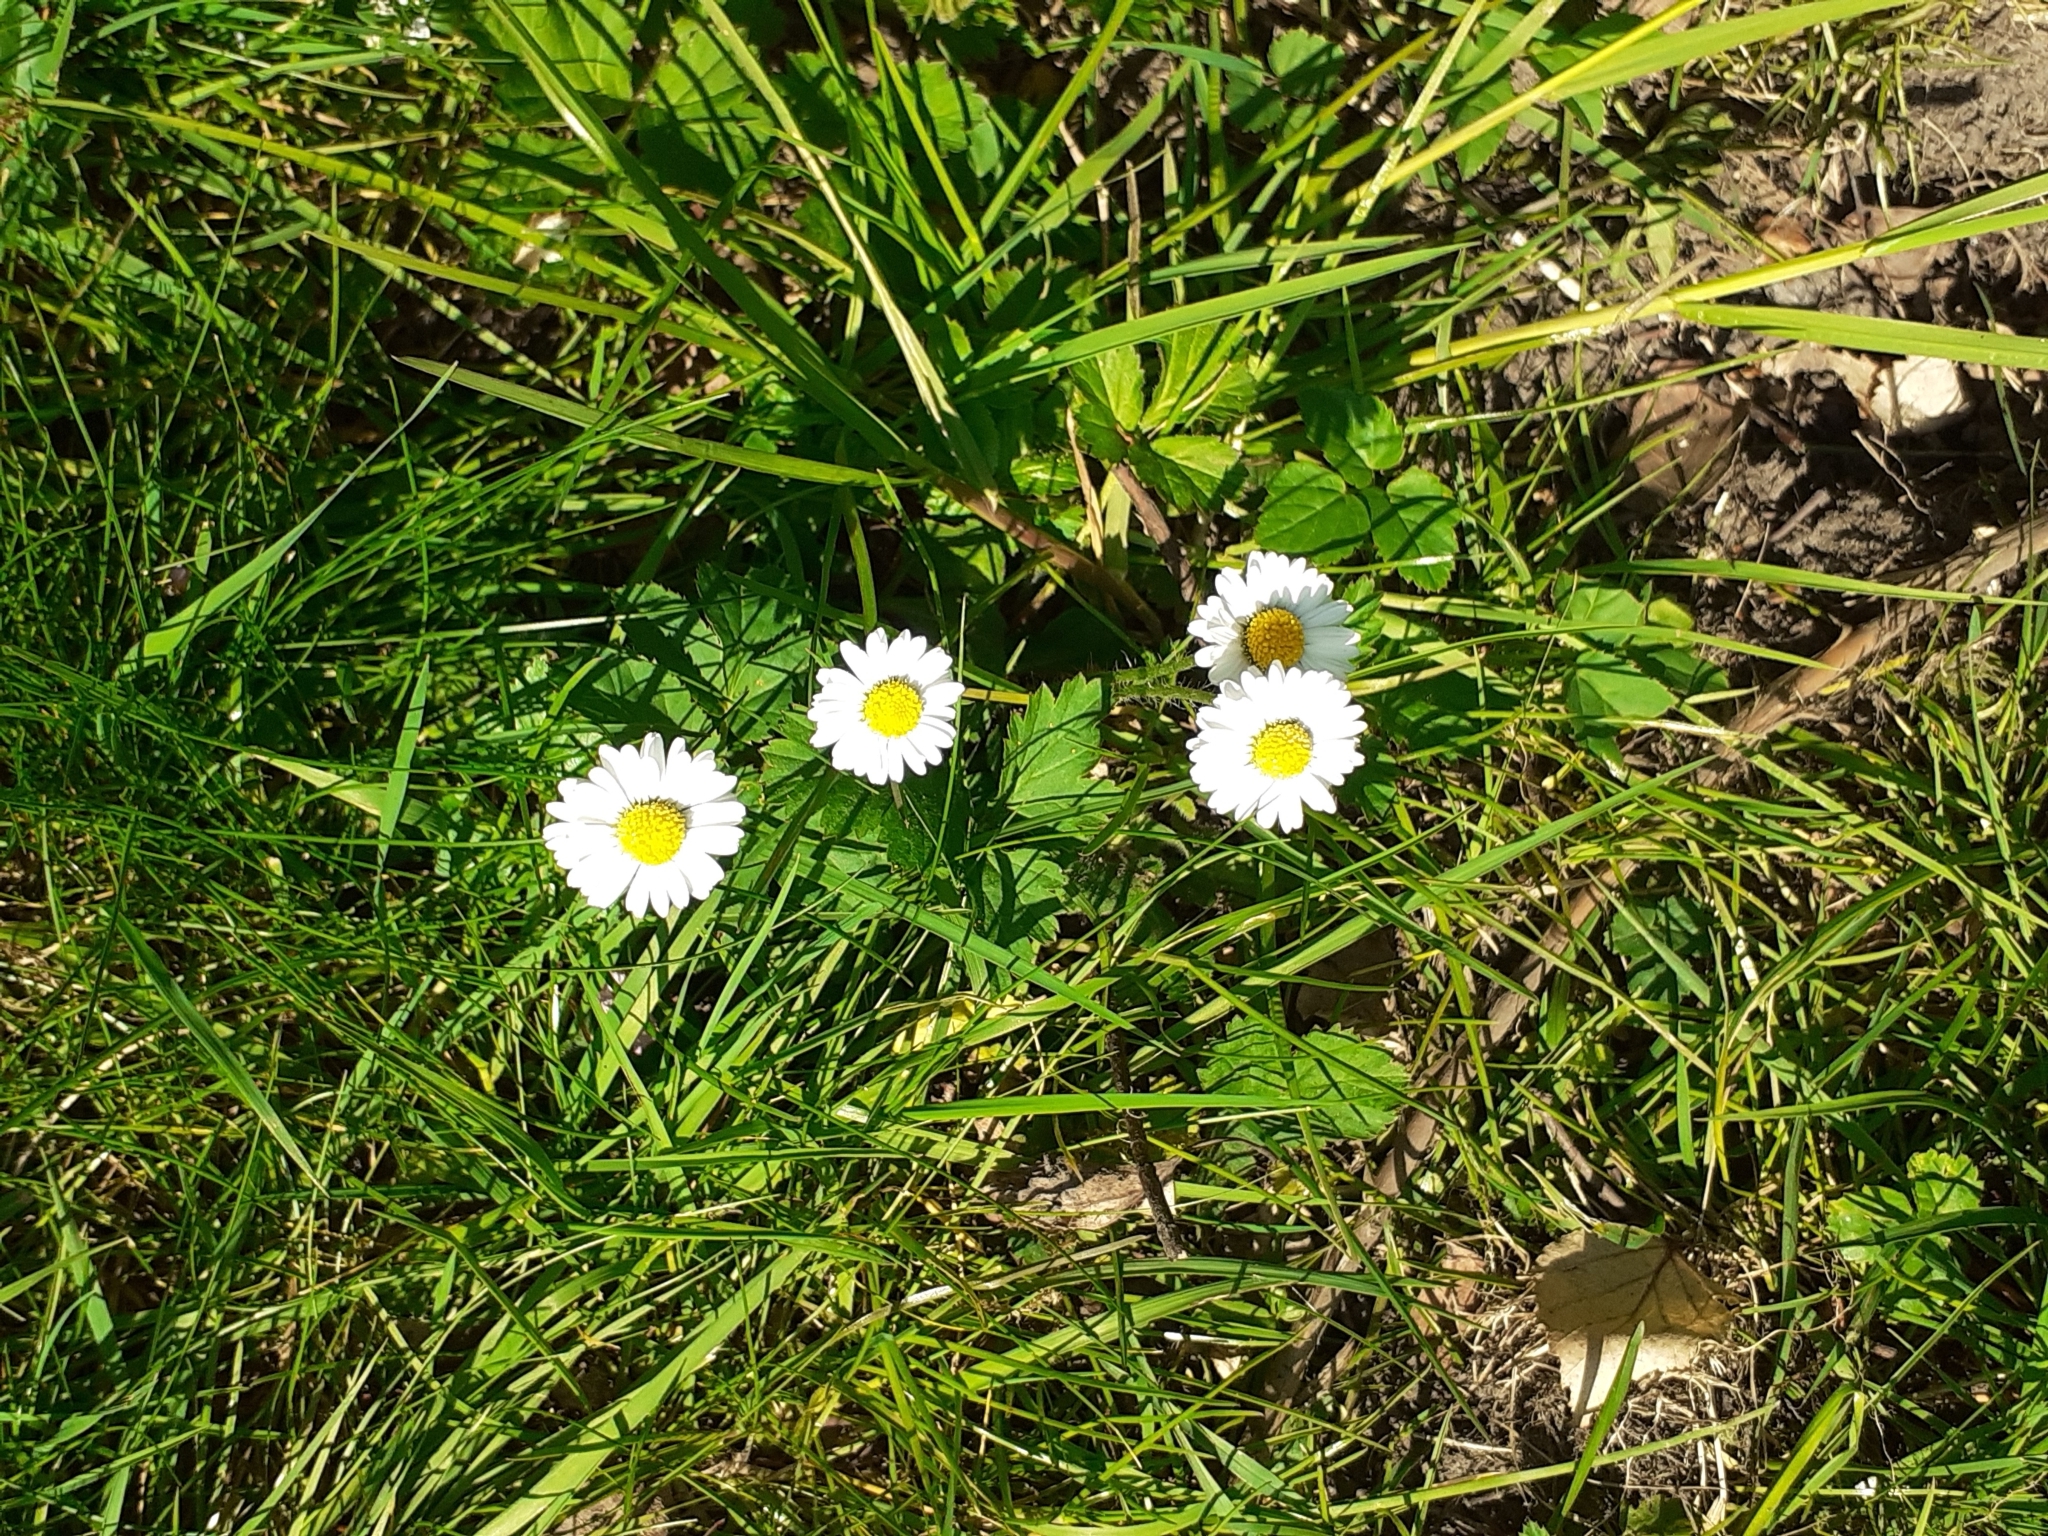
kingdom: Plantae
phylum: Tracheophyta
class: Magnoliopsida
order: Asterales
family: Asteraceae
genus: Bellis
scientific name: Bellis perennis
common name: Lawndaisy
